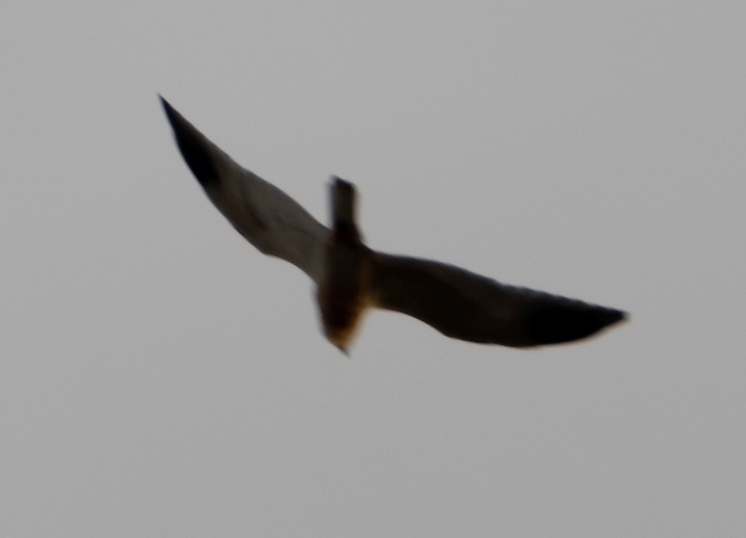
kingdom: Animalia
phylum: Chordata
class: Aves
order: Falconiformes
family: Falconidae
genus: Falco
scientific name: Falco rupicolus
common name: Rock kestrel
